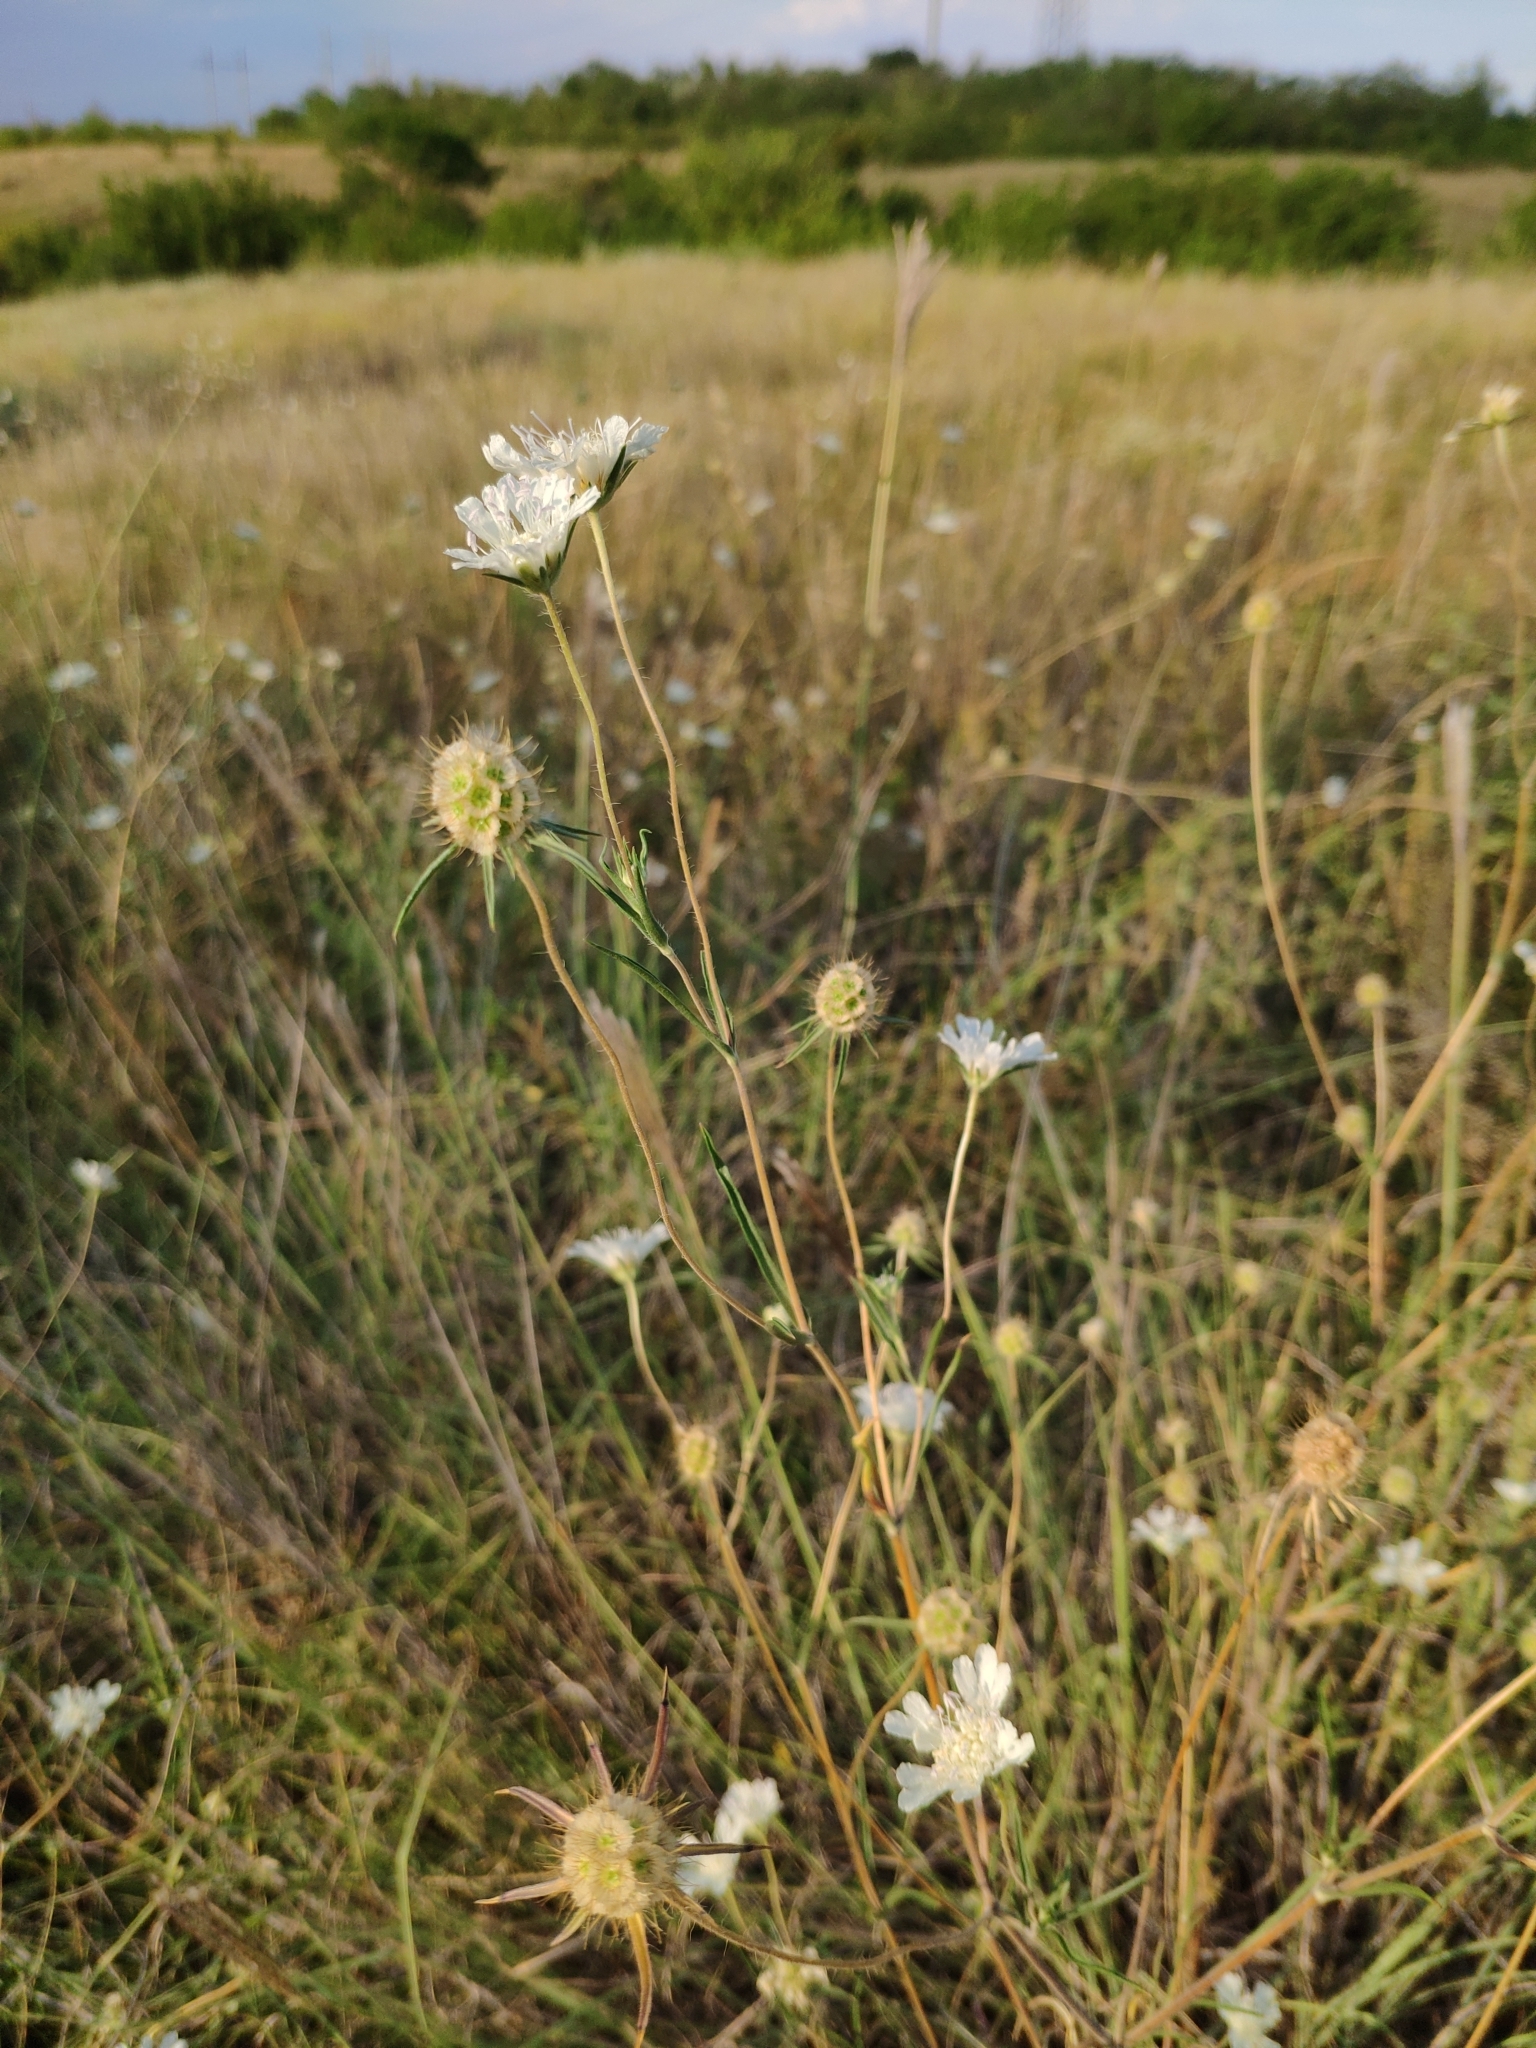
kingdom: Plantae
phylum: Tracheophyta
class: Magnoliopsida
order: Dipsacales
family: Caprifoliaceae
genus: Lomelosia
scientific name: Lomelosia argentea
